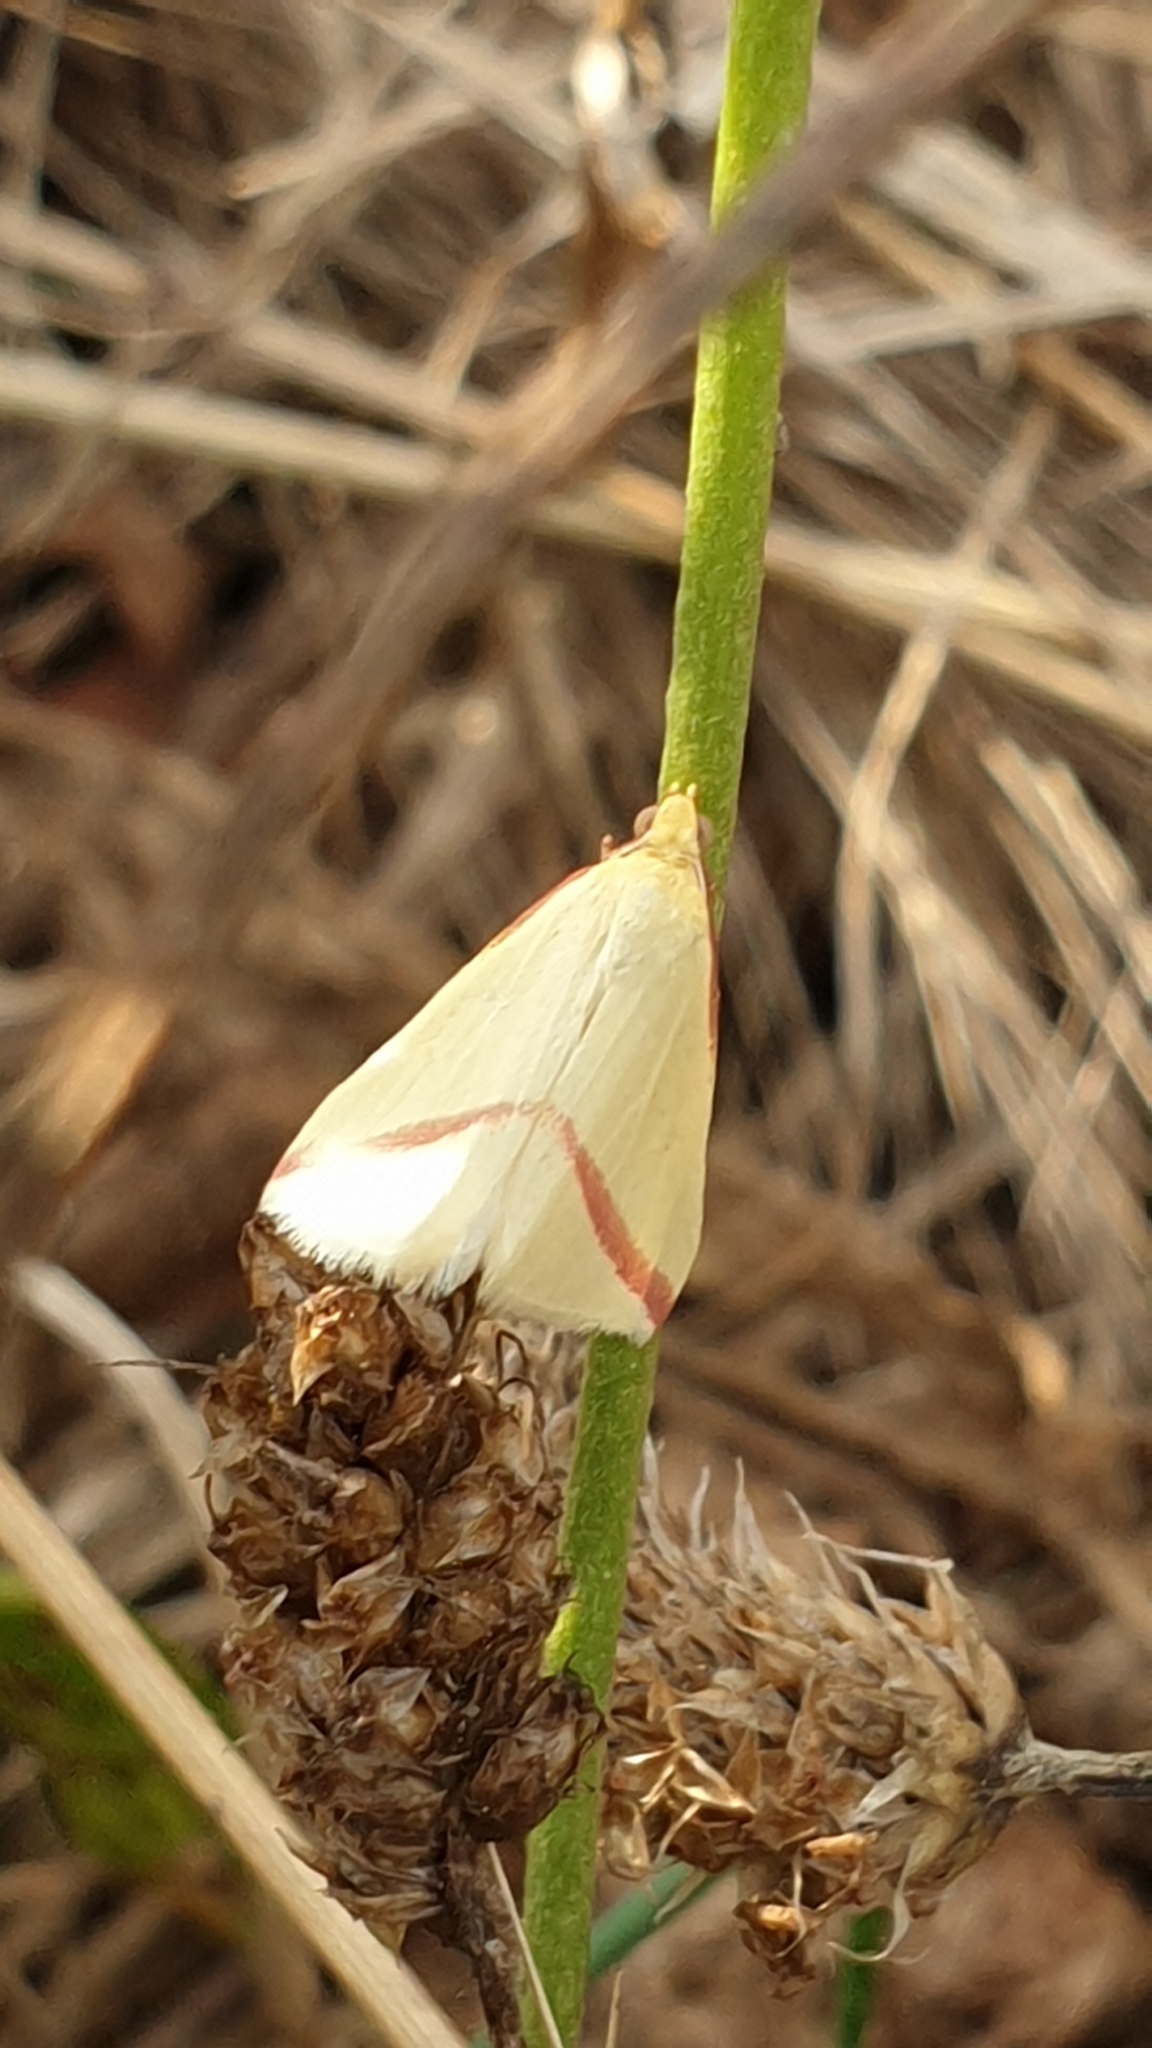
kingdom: Animalia
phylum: Arthropoda
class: Insecta
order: Lepidoptera
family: Geometridae
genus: Rhodometra
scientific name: Rhodometra sacraria
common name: Vestal
